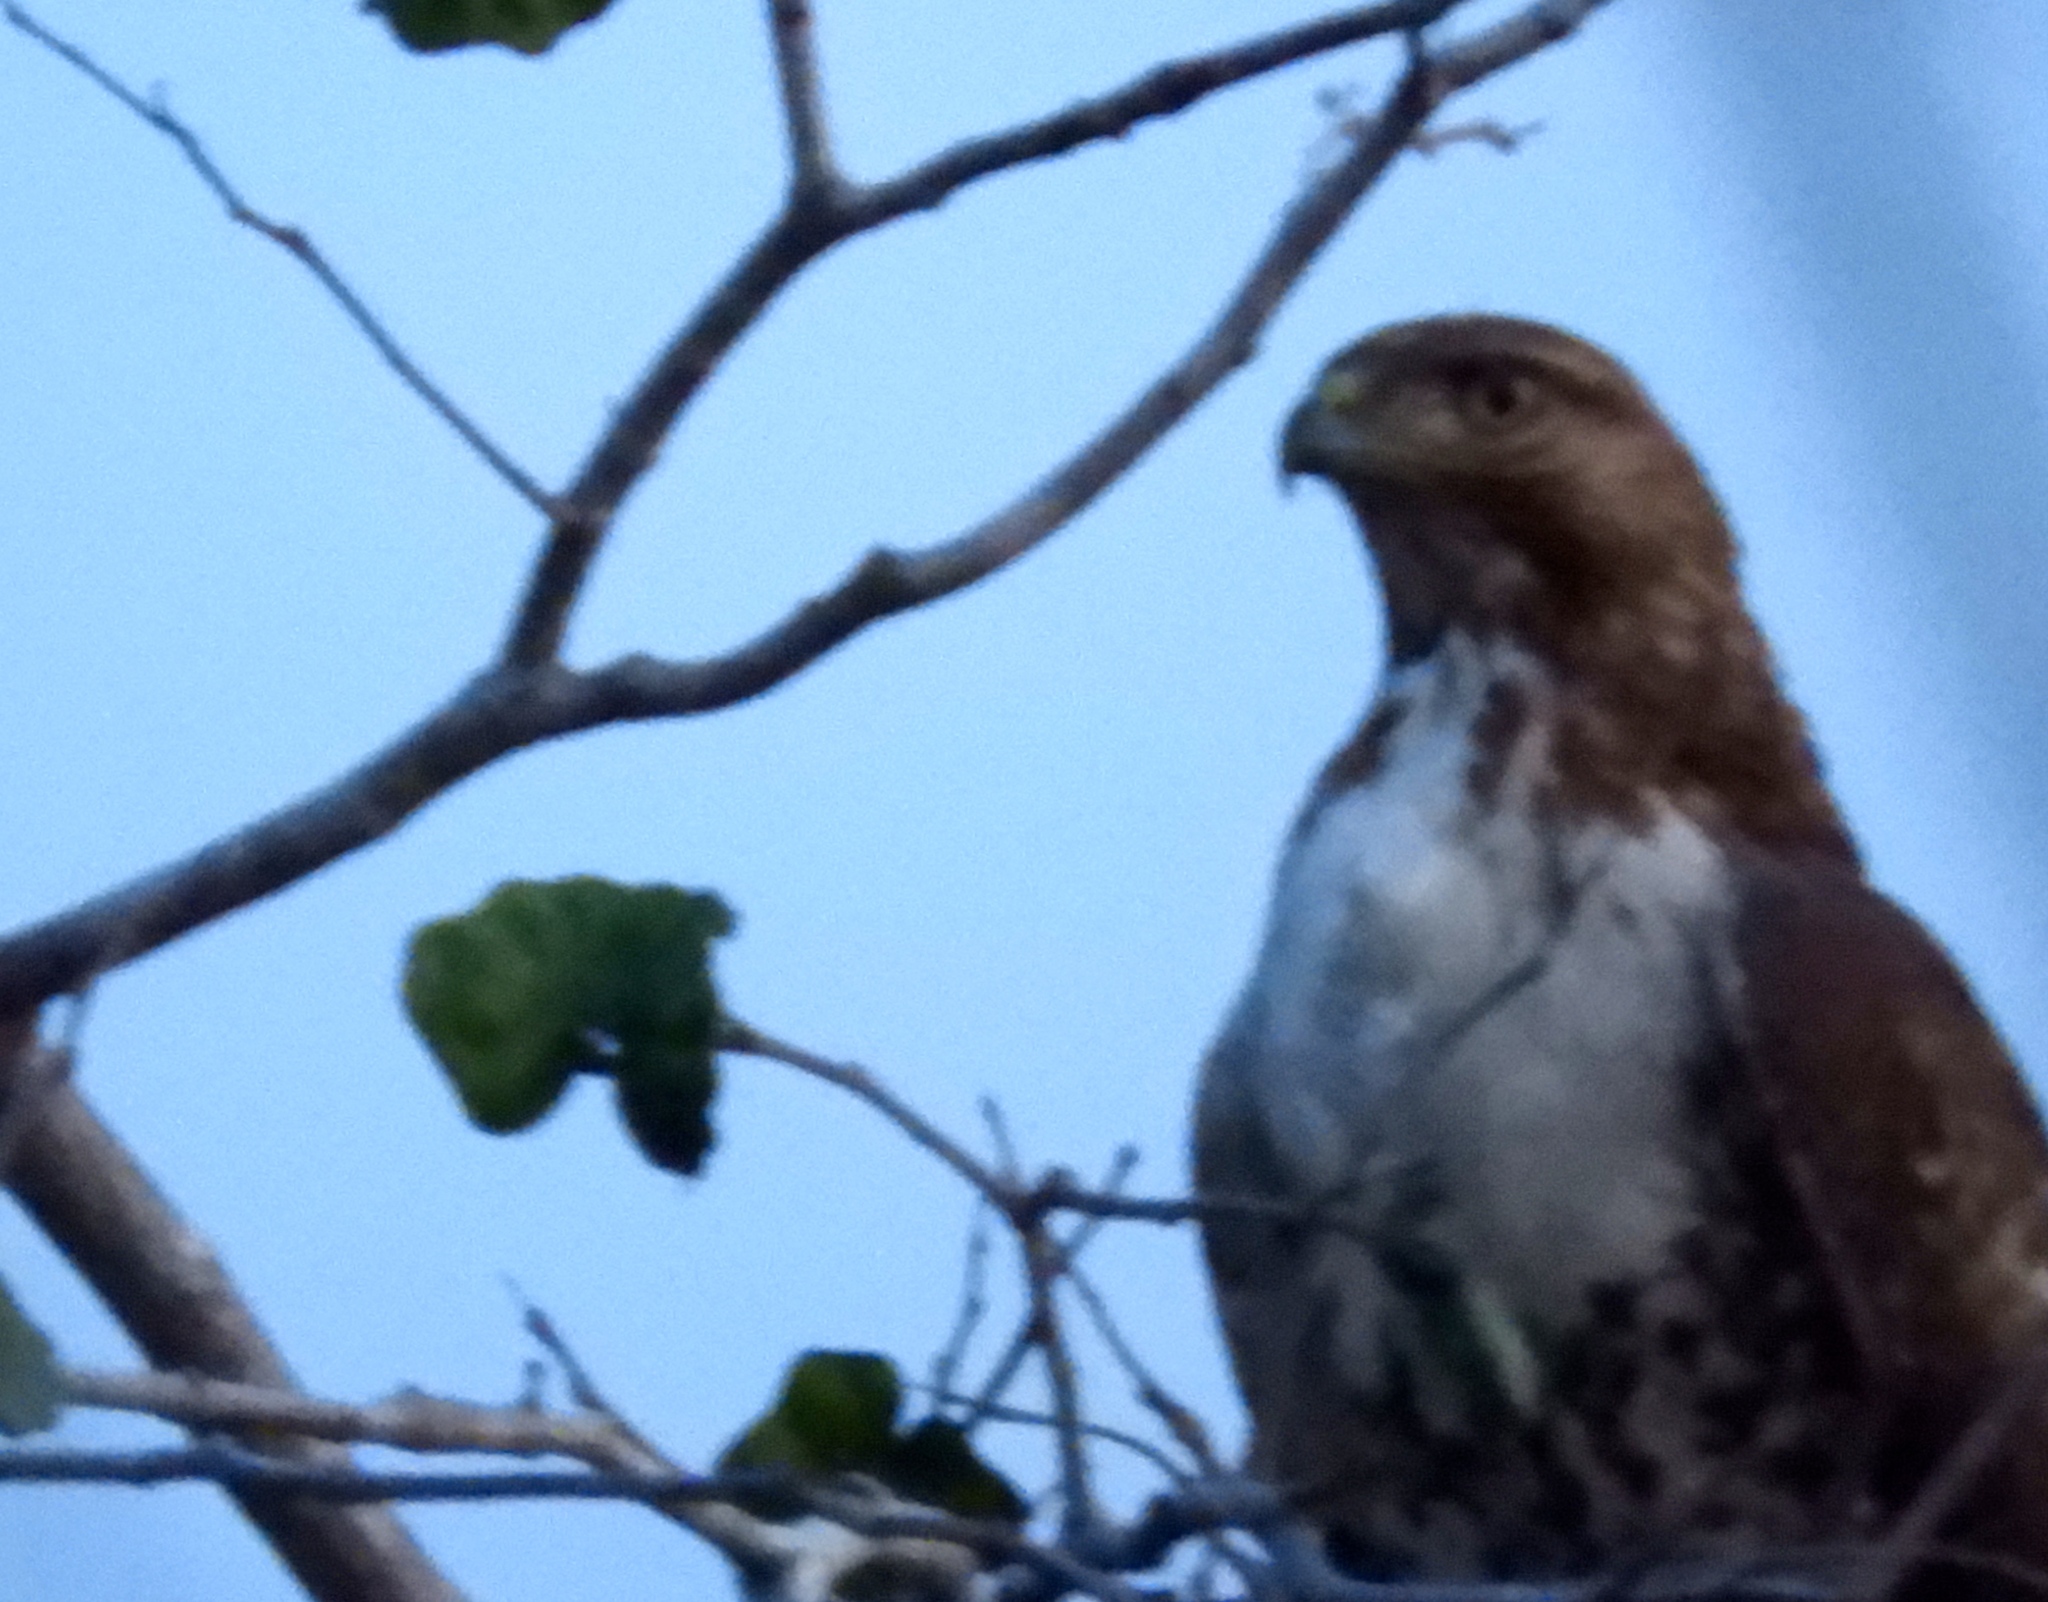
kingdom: Animalia
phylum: Chordata
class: Aves
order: Accipitriformes
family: Accipitridae
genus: Buteo
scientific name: Buteo jamaicensis
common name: Red-tailed hawk
